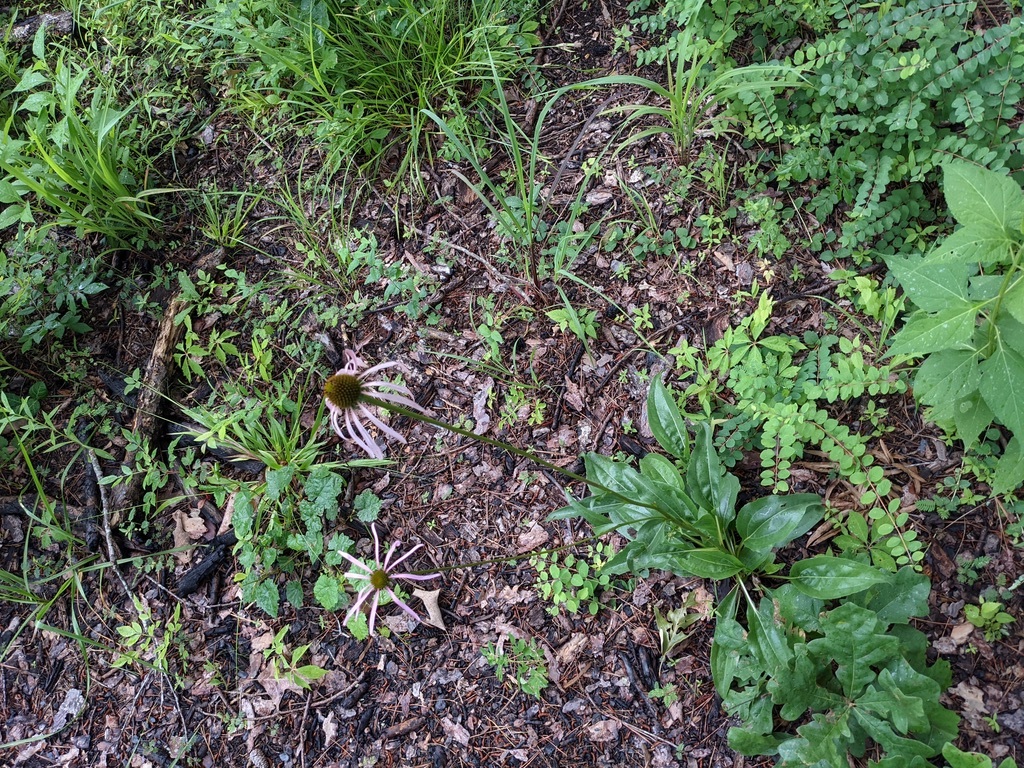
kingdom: Plantae
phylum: Tracheophyta
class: Magnoliopsida
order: Asterales
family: Asteraceae
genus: Echinacea
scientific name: Echinacea laevigata
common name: Smooth coneflower
